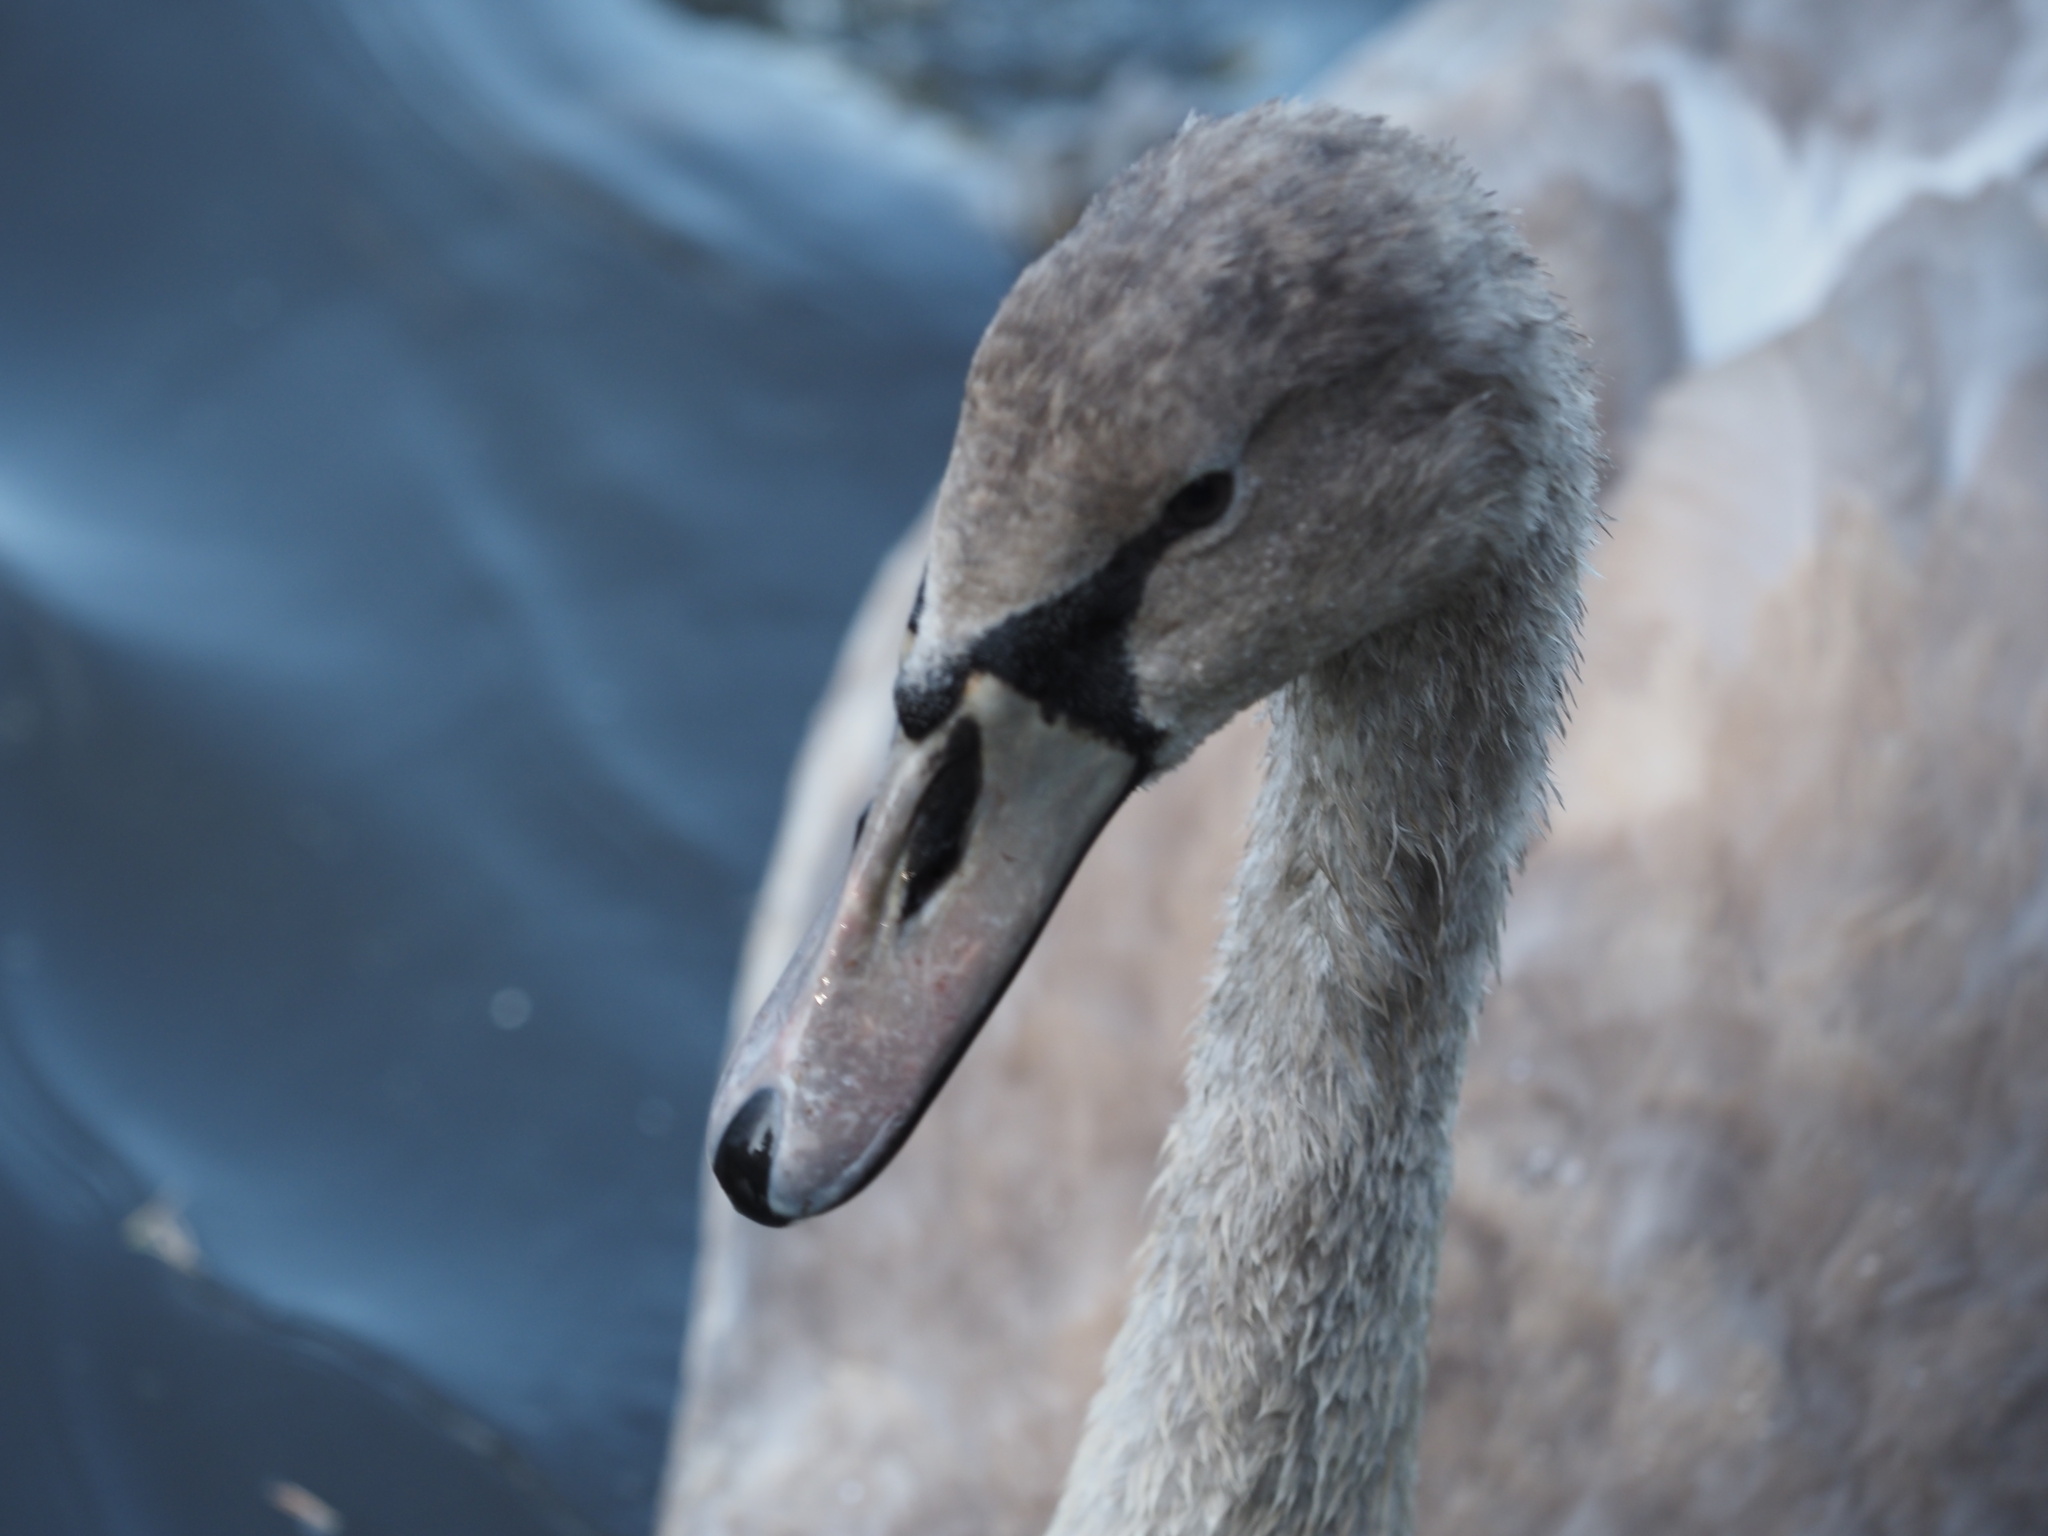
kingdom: Animalia
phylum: Chordata
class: Aves
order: Anseriformes
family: Anatidae
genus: Cygnus
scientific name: Cygnus olor
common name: Mute swan
